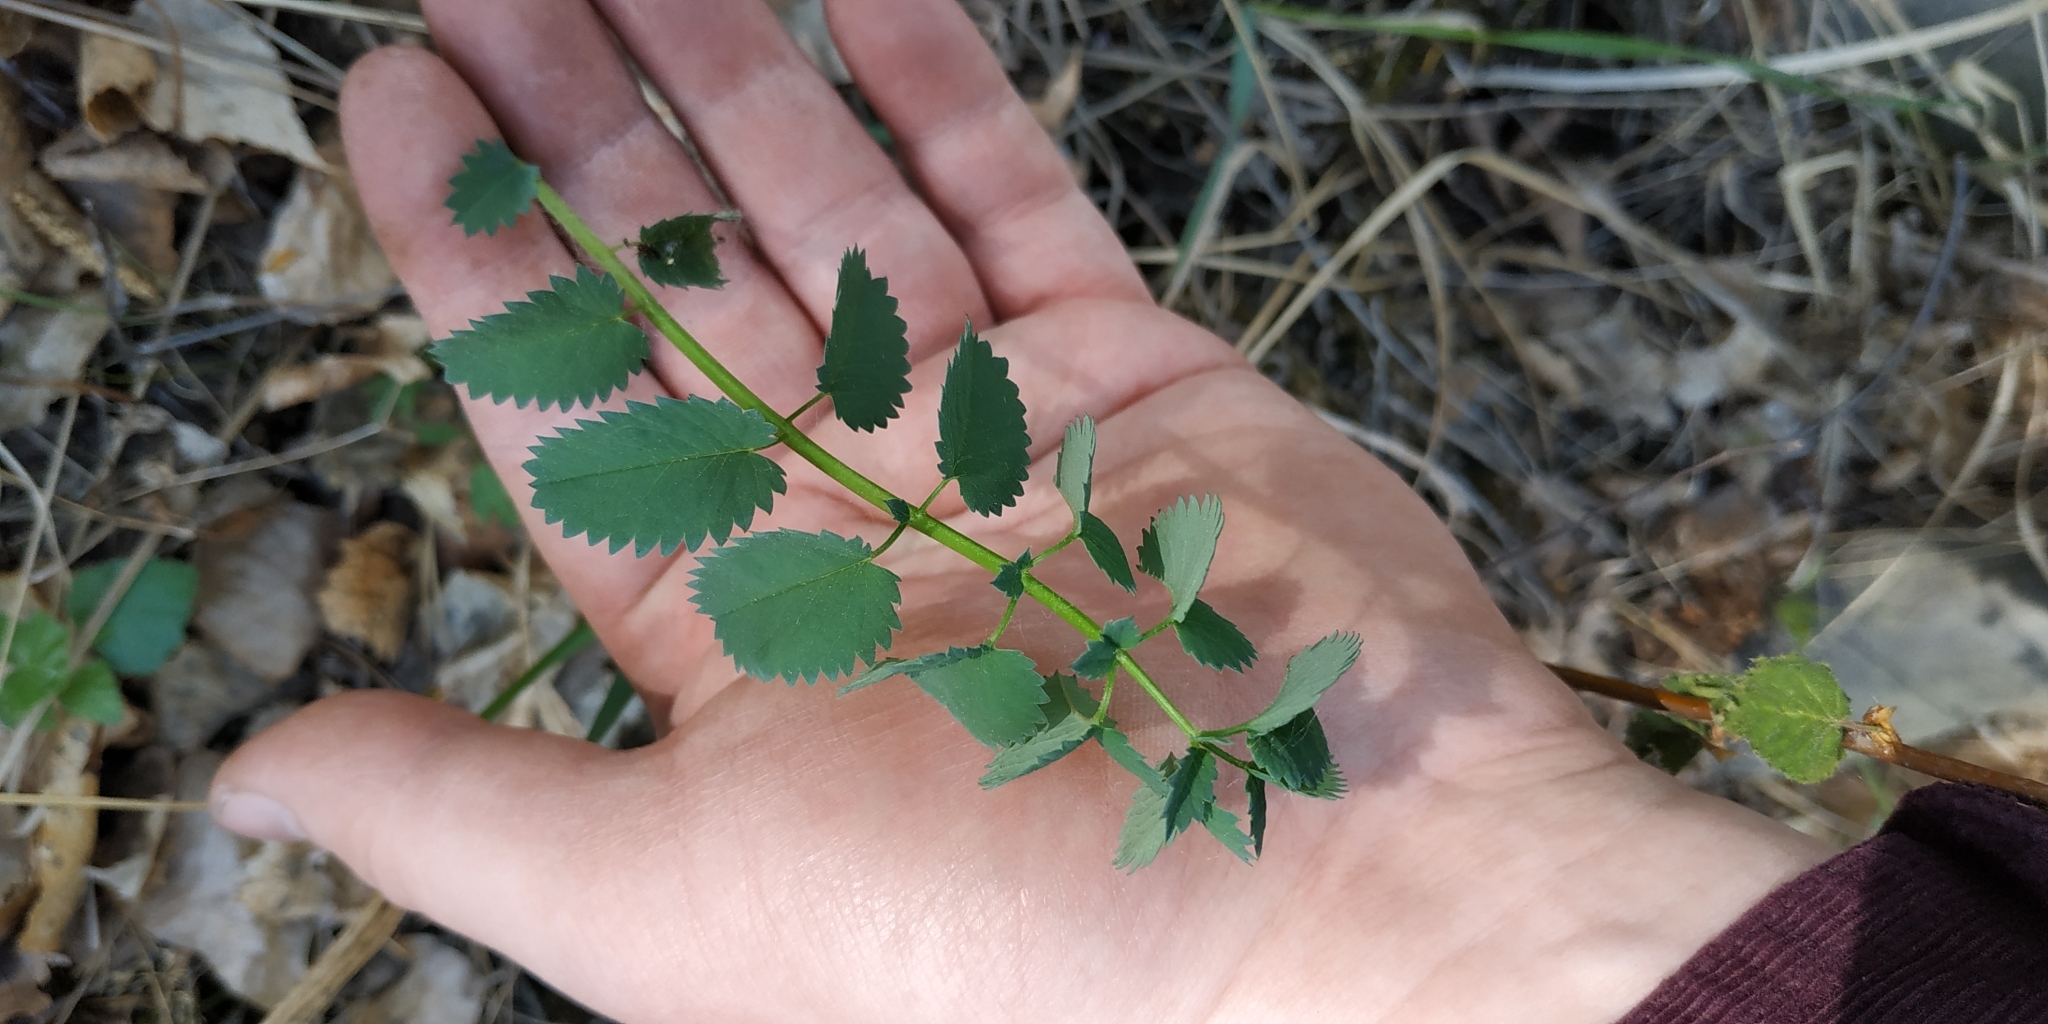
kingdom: Plantae
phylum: Tracheophyta
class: Magnoliopsida
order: Rosales
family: Rosaceae
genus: Sanguisorba
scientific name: Sanguisorba officinalis
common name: Great burnet
